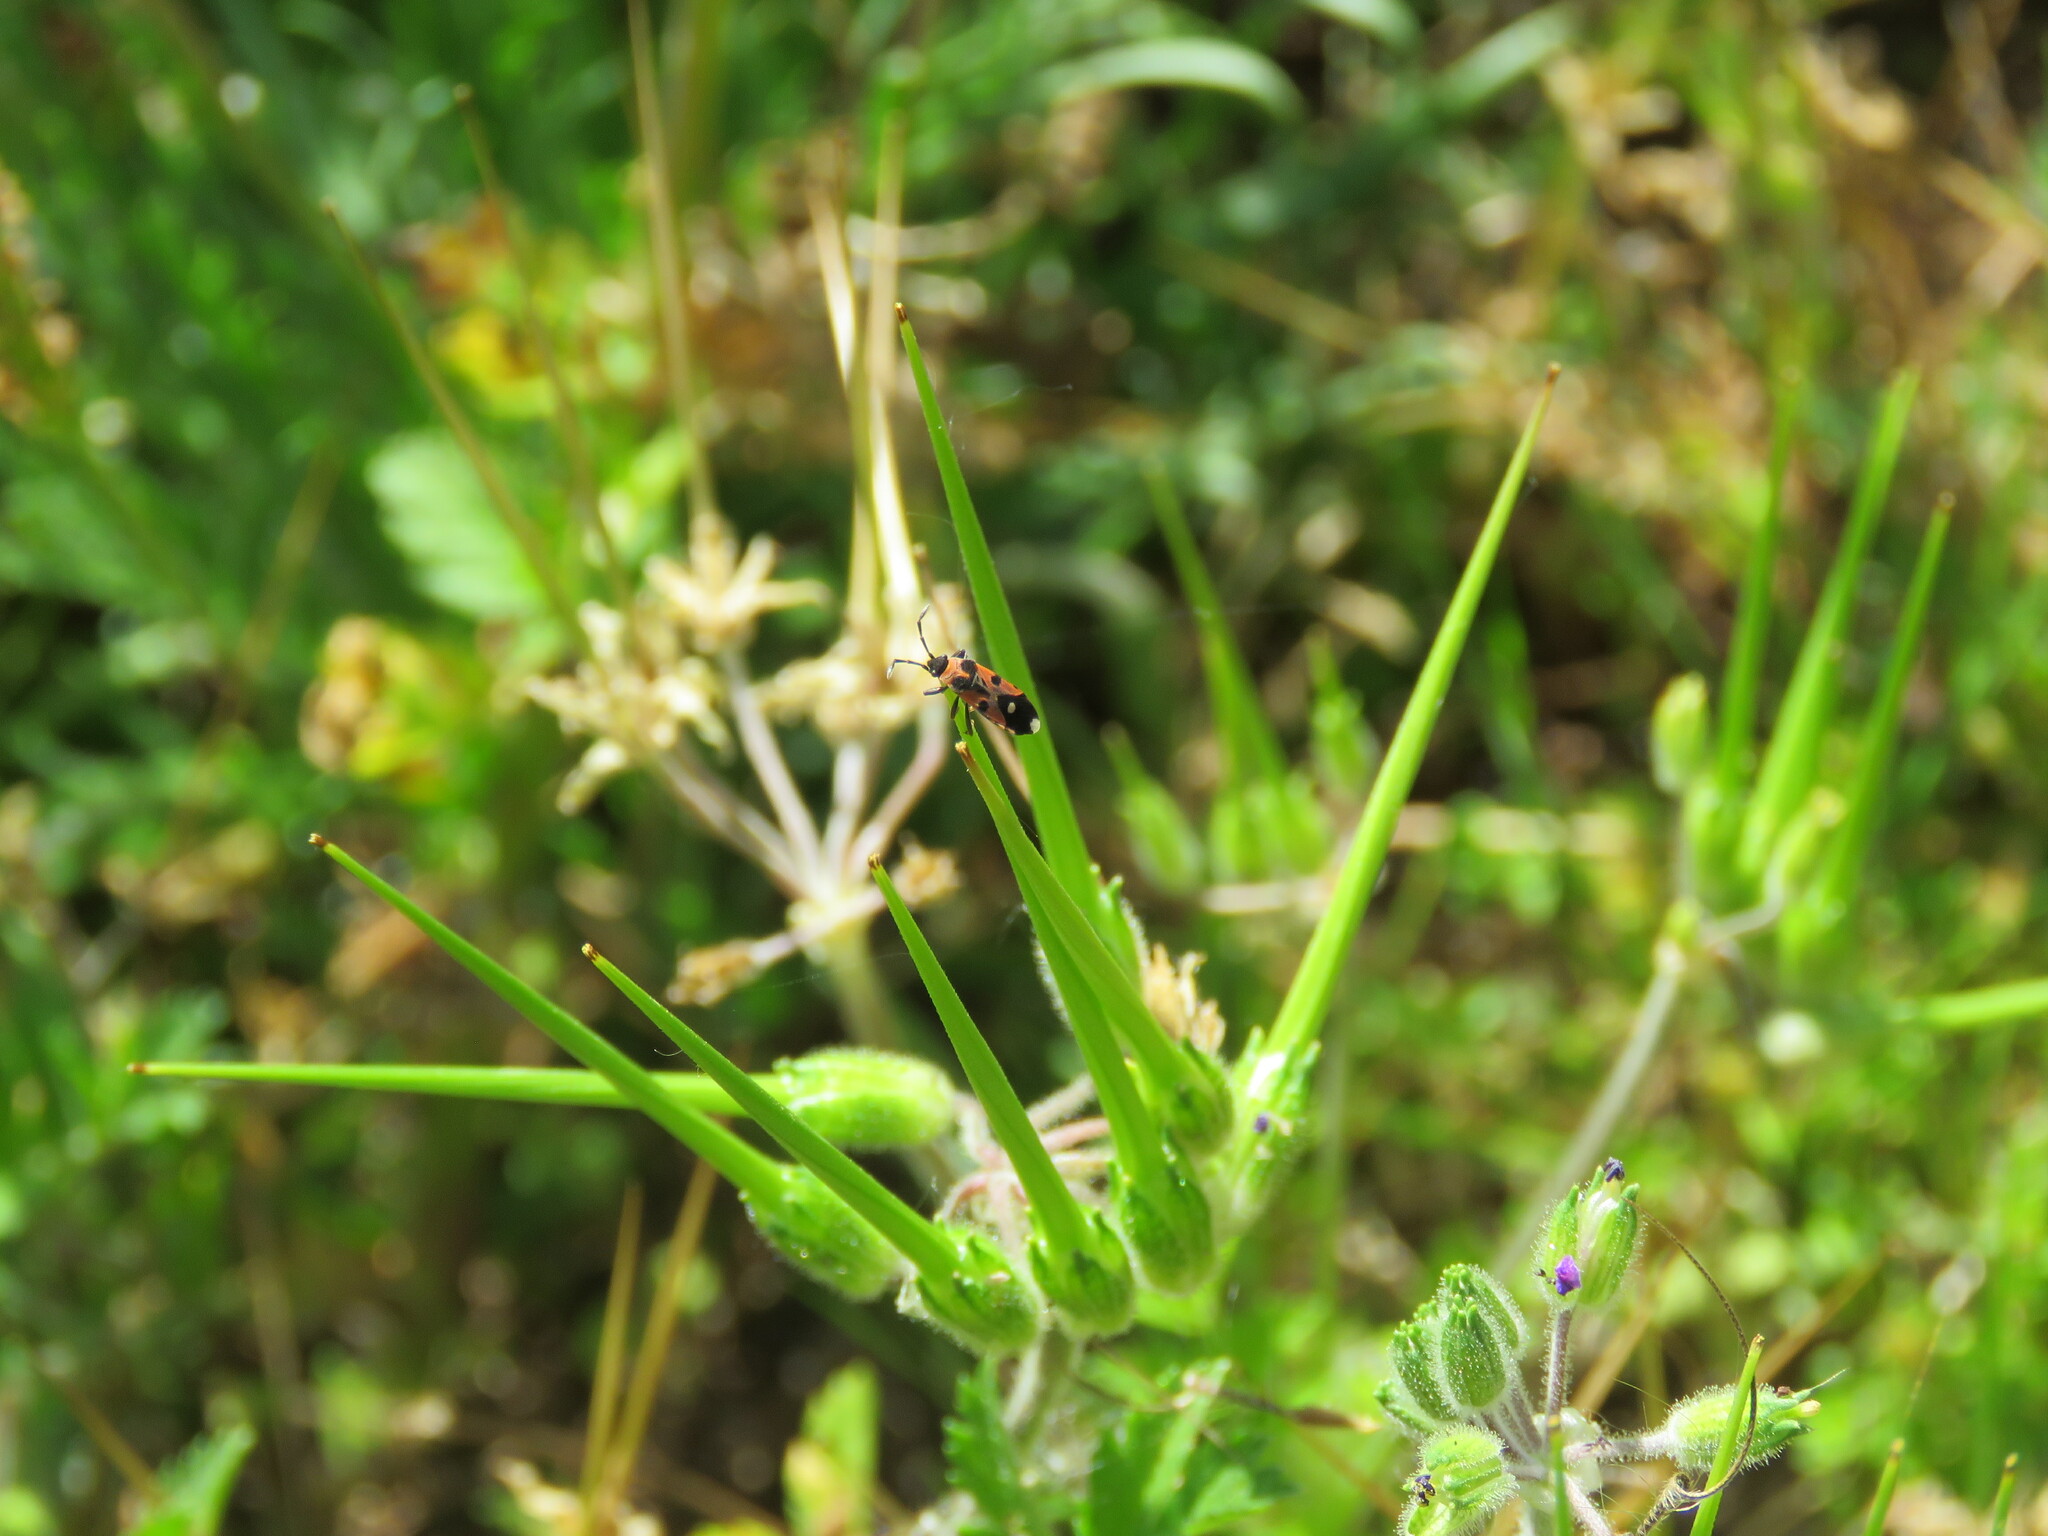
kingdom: Animalia
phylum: Arthropoda
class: Insecta
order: Hemiptera
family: Lygaeidae
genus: Horvathiolus
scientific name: Horvathiolus superbus
